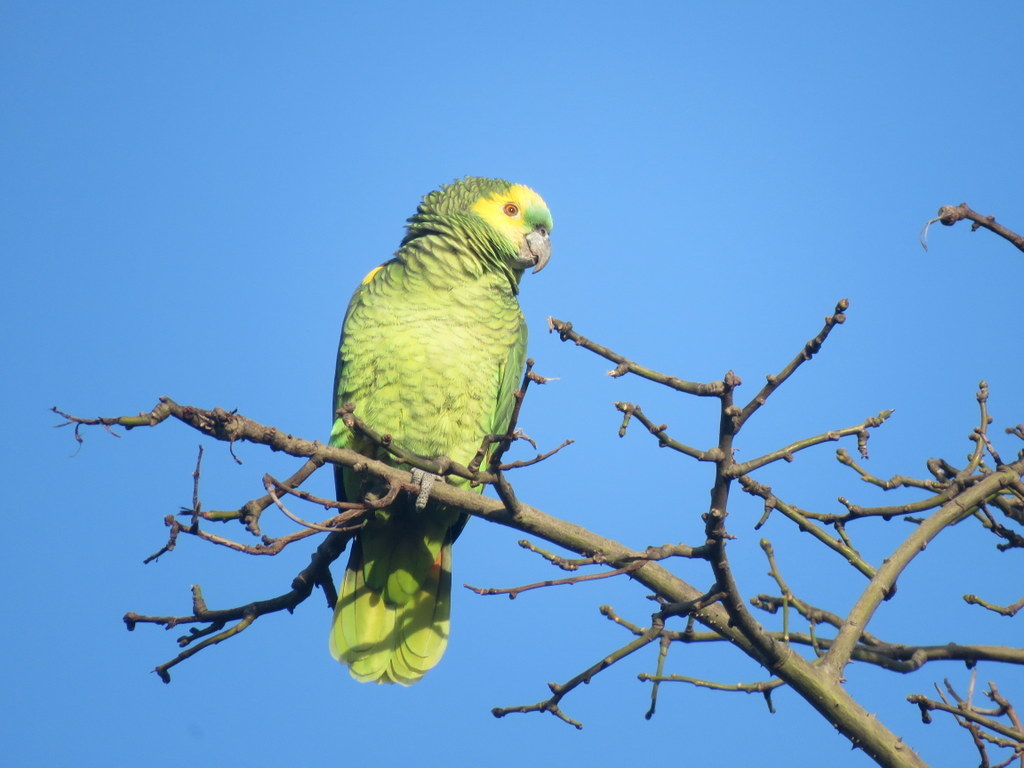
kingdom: Animalia
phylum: Chordata
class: Aves
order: Psittaciformes
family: Psittacidae
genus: Amazona
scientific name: Amazona aestiva
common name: Turquoise-fronted amazon
